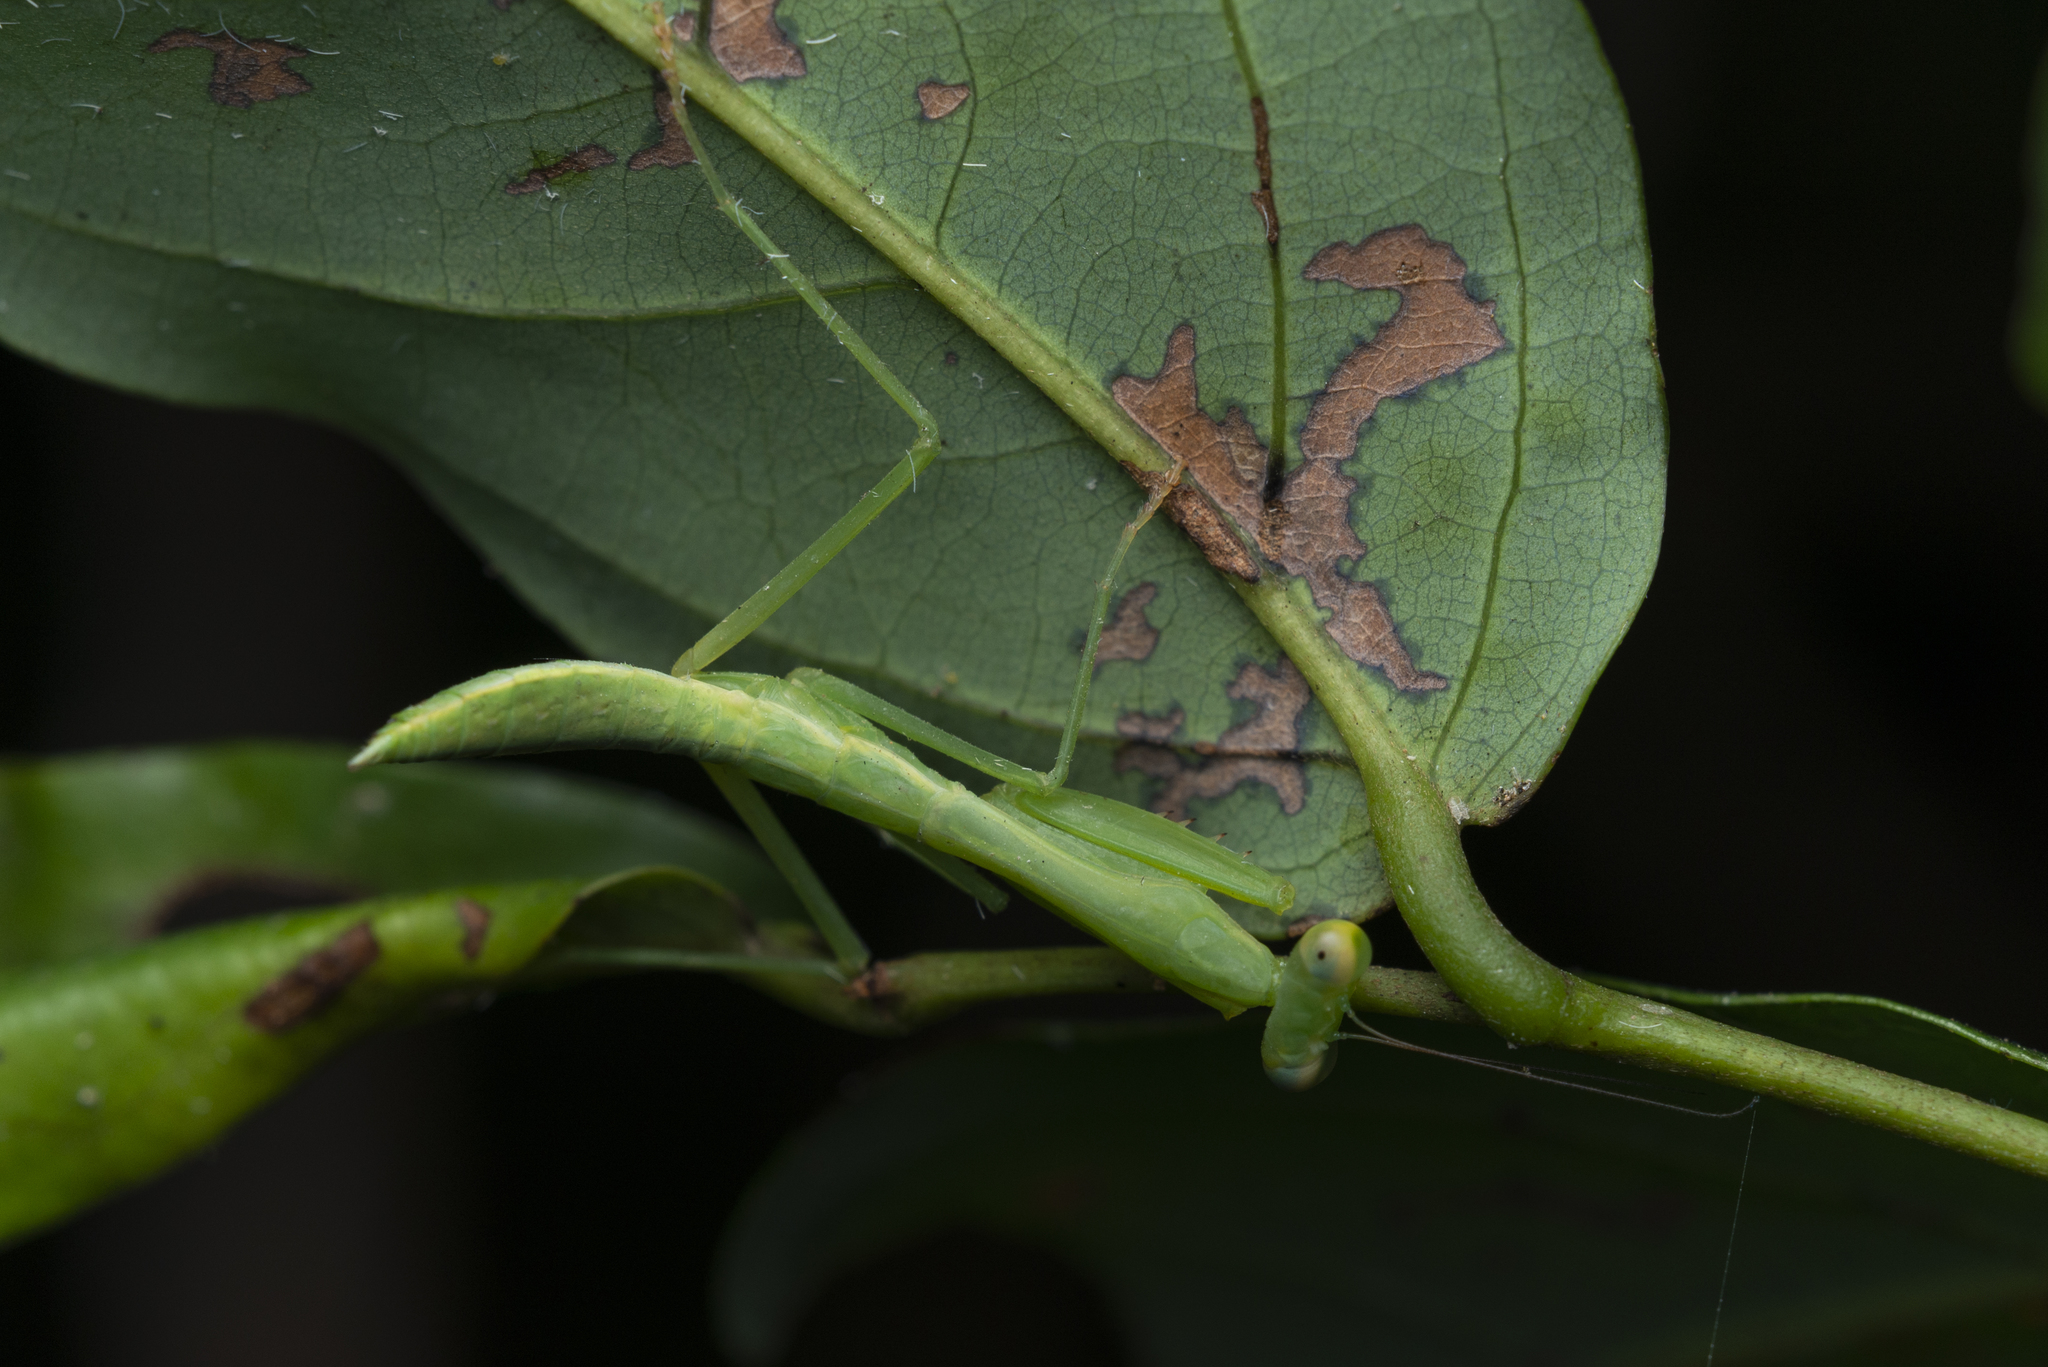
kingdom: Animalia
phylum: Arthropoda
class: Insecta
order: Mantodea
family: Mantidae
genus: Titanodula
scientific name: Titanodula formosana
